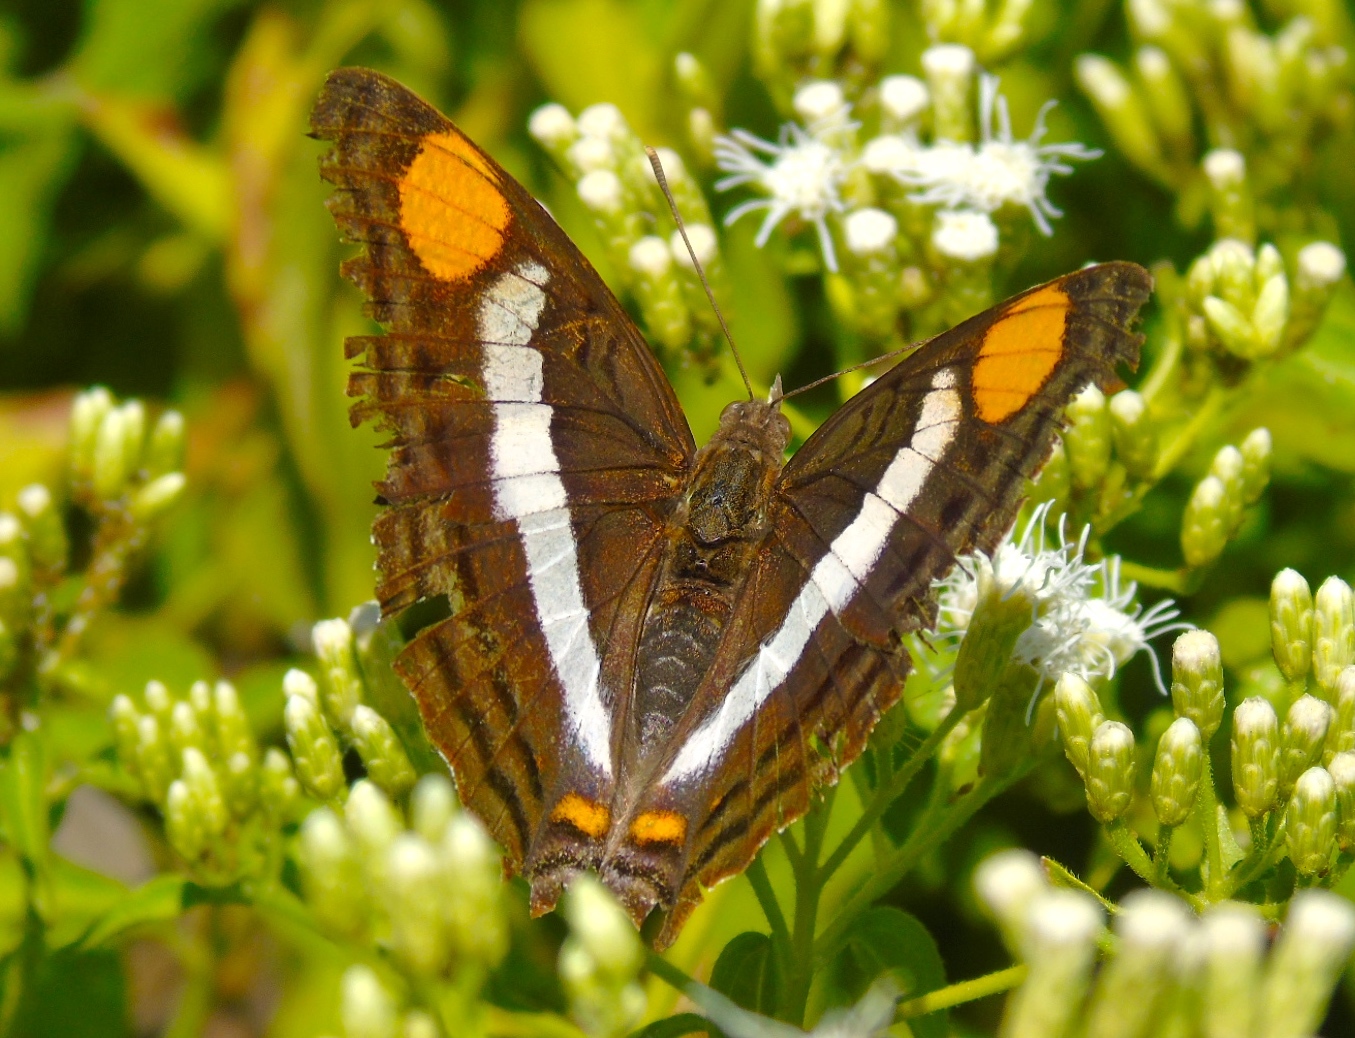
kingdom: Animalia
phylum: Arthropoda
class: Insecta
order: Lepidoptera
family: Nymphalidae
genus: Doxocopa
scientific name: Doxocopa
